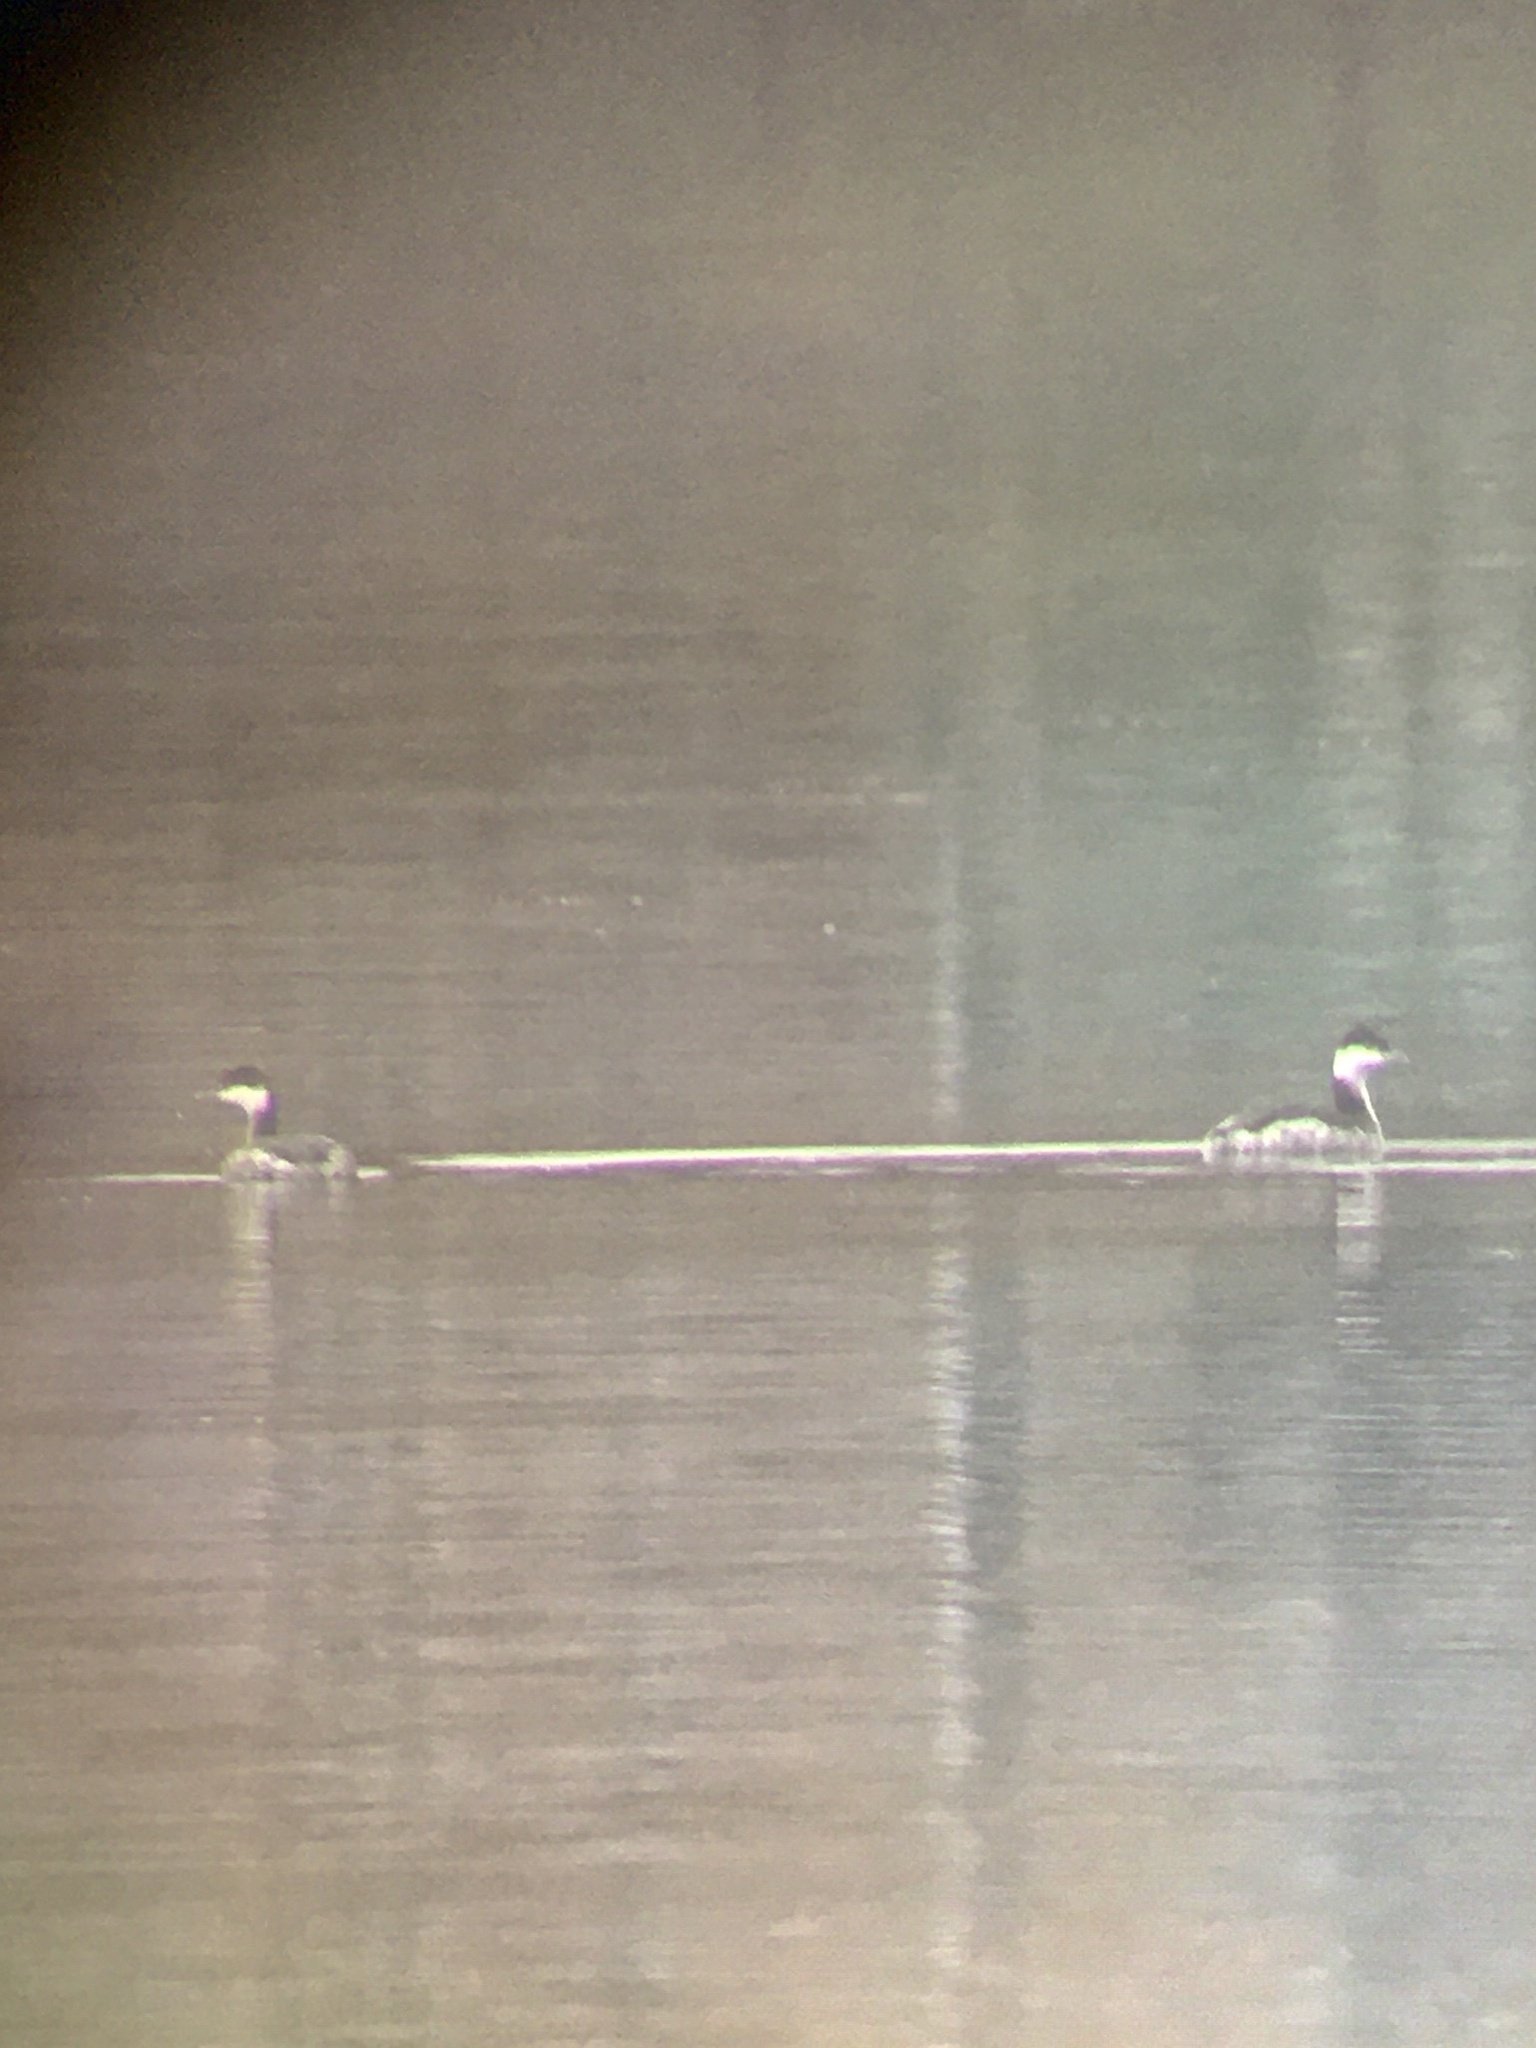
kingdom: Animalia
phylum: Chordata
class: Aves
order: Podicipediformes
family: Podicipedidae
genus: Podiceps
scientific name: Podiceps auritus
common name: Horned grebe
